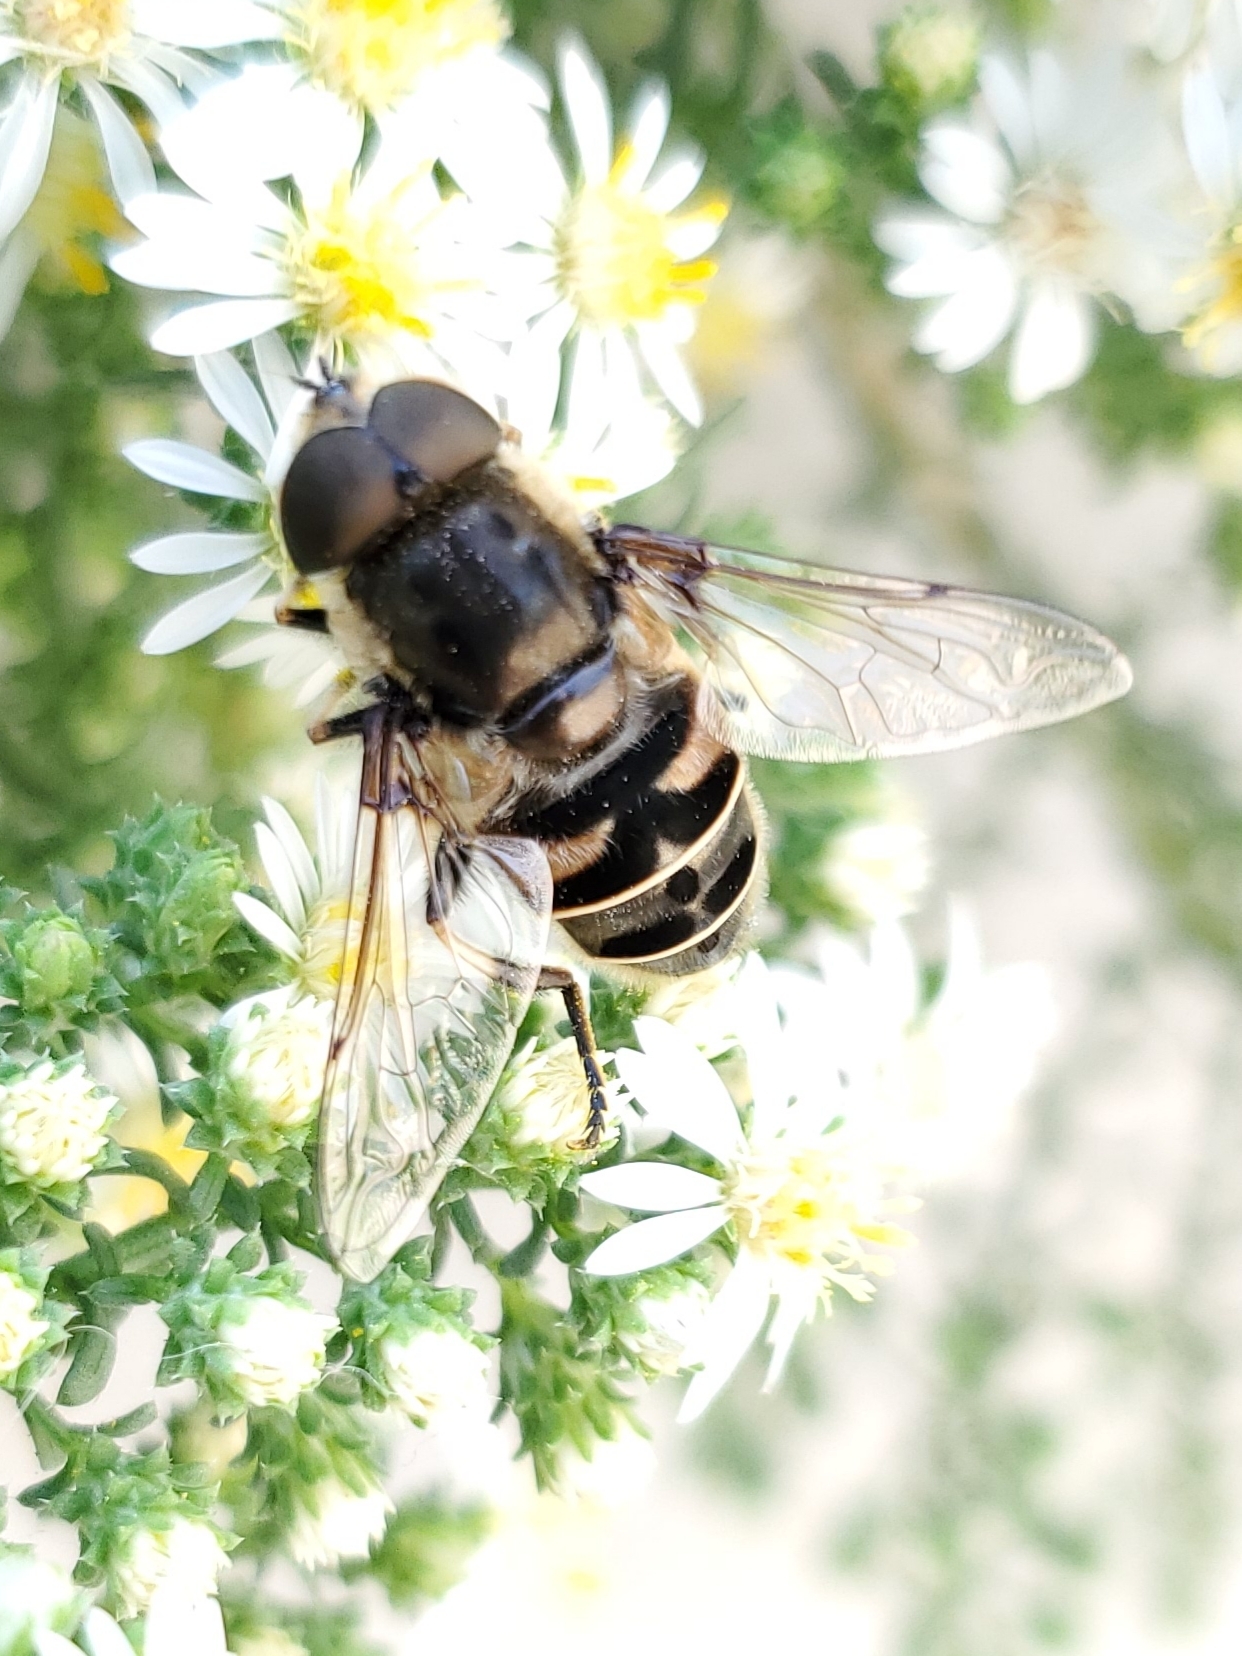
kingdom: Animalia
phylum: Arthropoda
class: Insecta
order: Diptera
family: Syrphidae
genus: Eristalis
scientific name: Eristalis dimidiata
